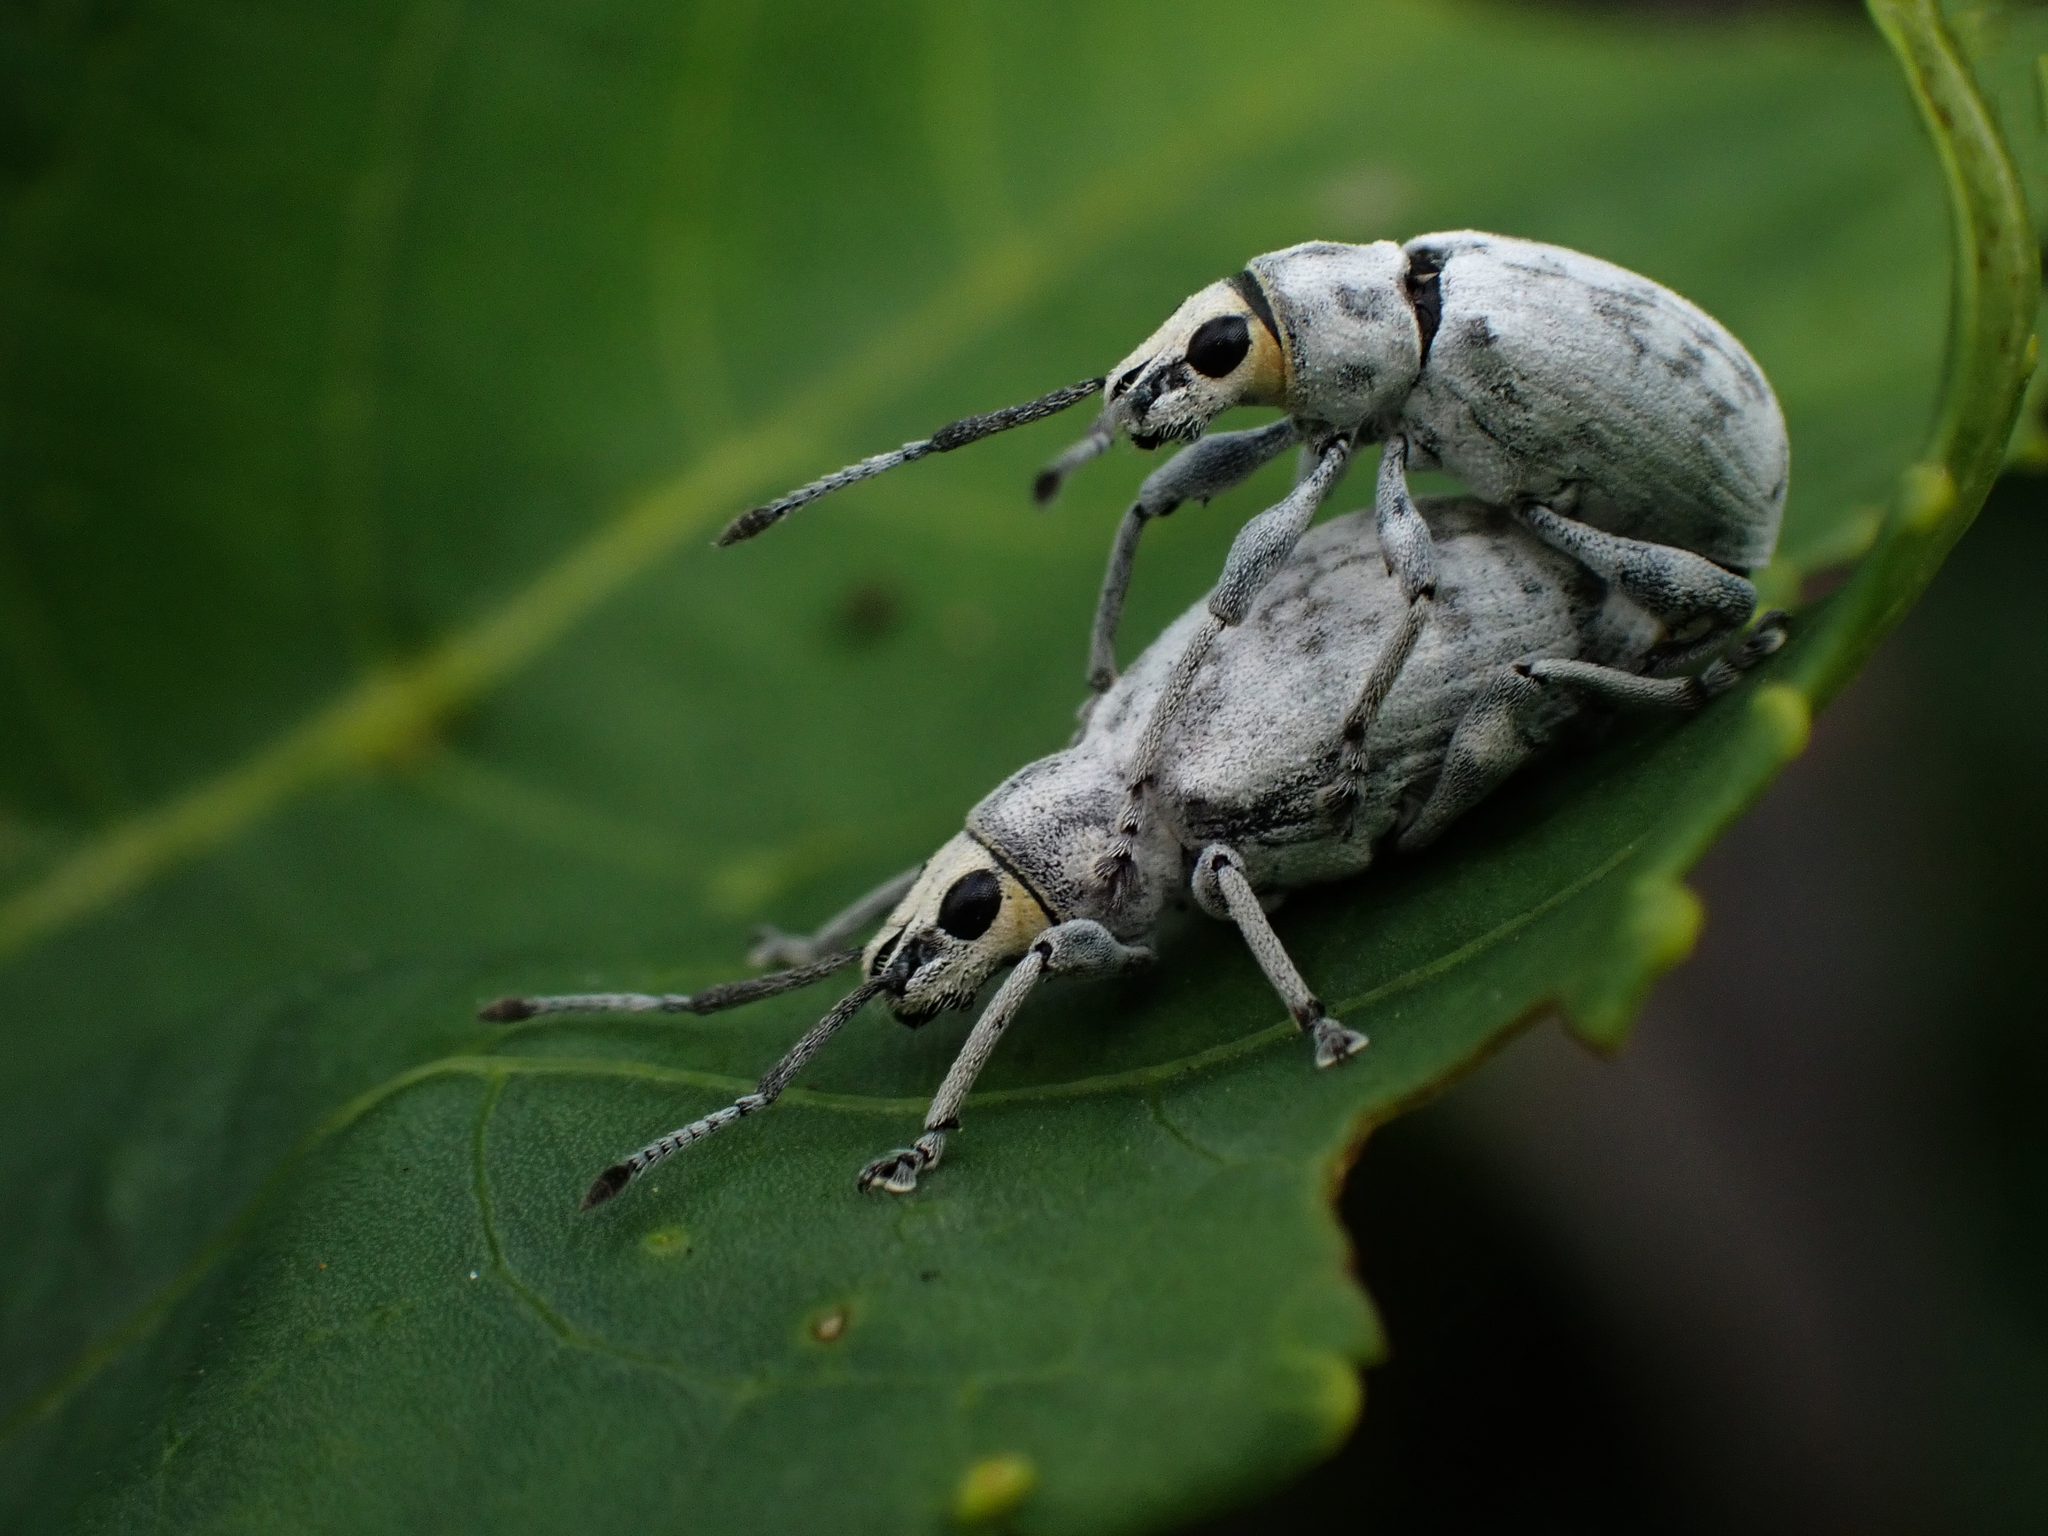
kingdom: Animalia
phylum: Arthropoda
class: Insecta
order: Coleoptera
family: Curculionidae
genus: Myllocerus
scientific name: Myllocerus undecimpustulatus
